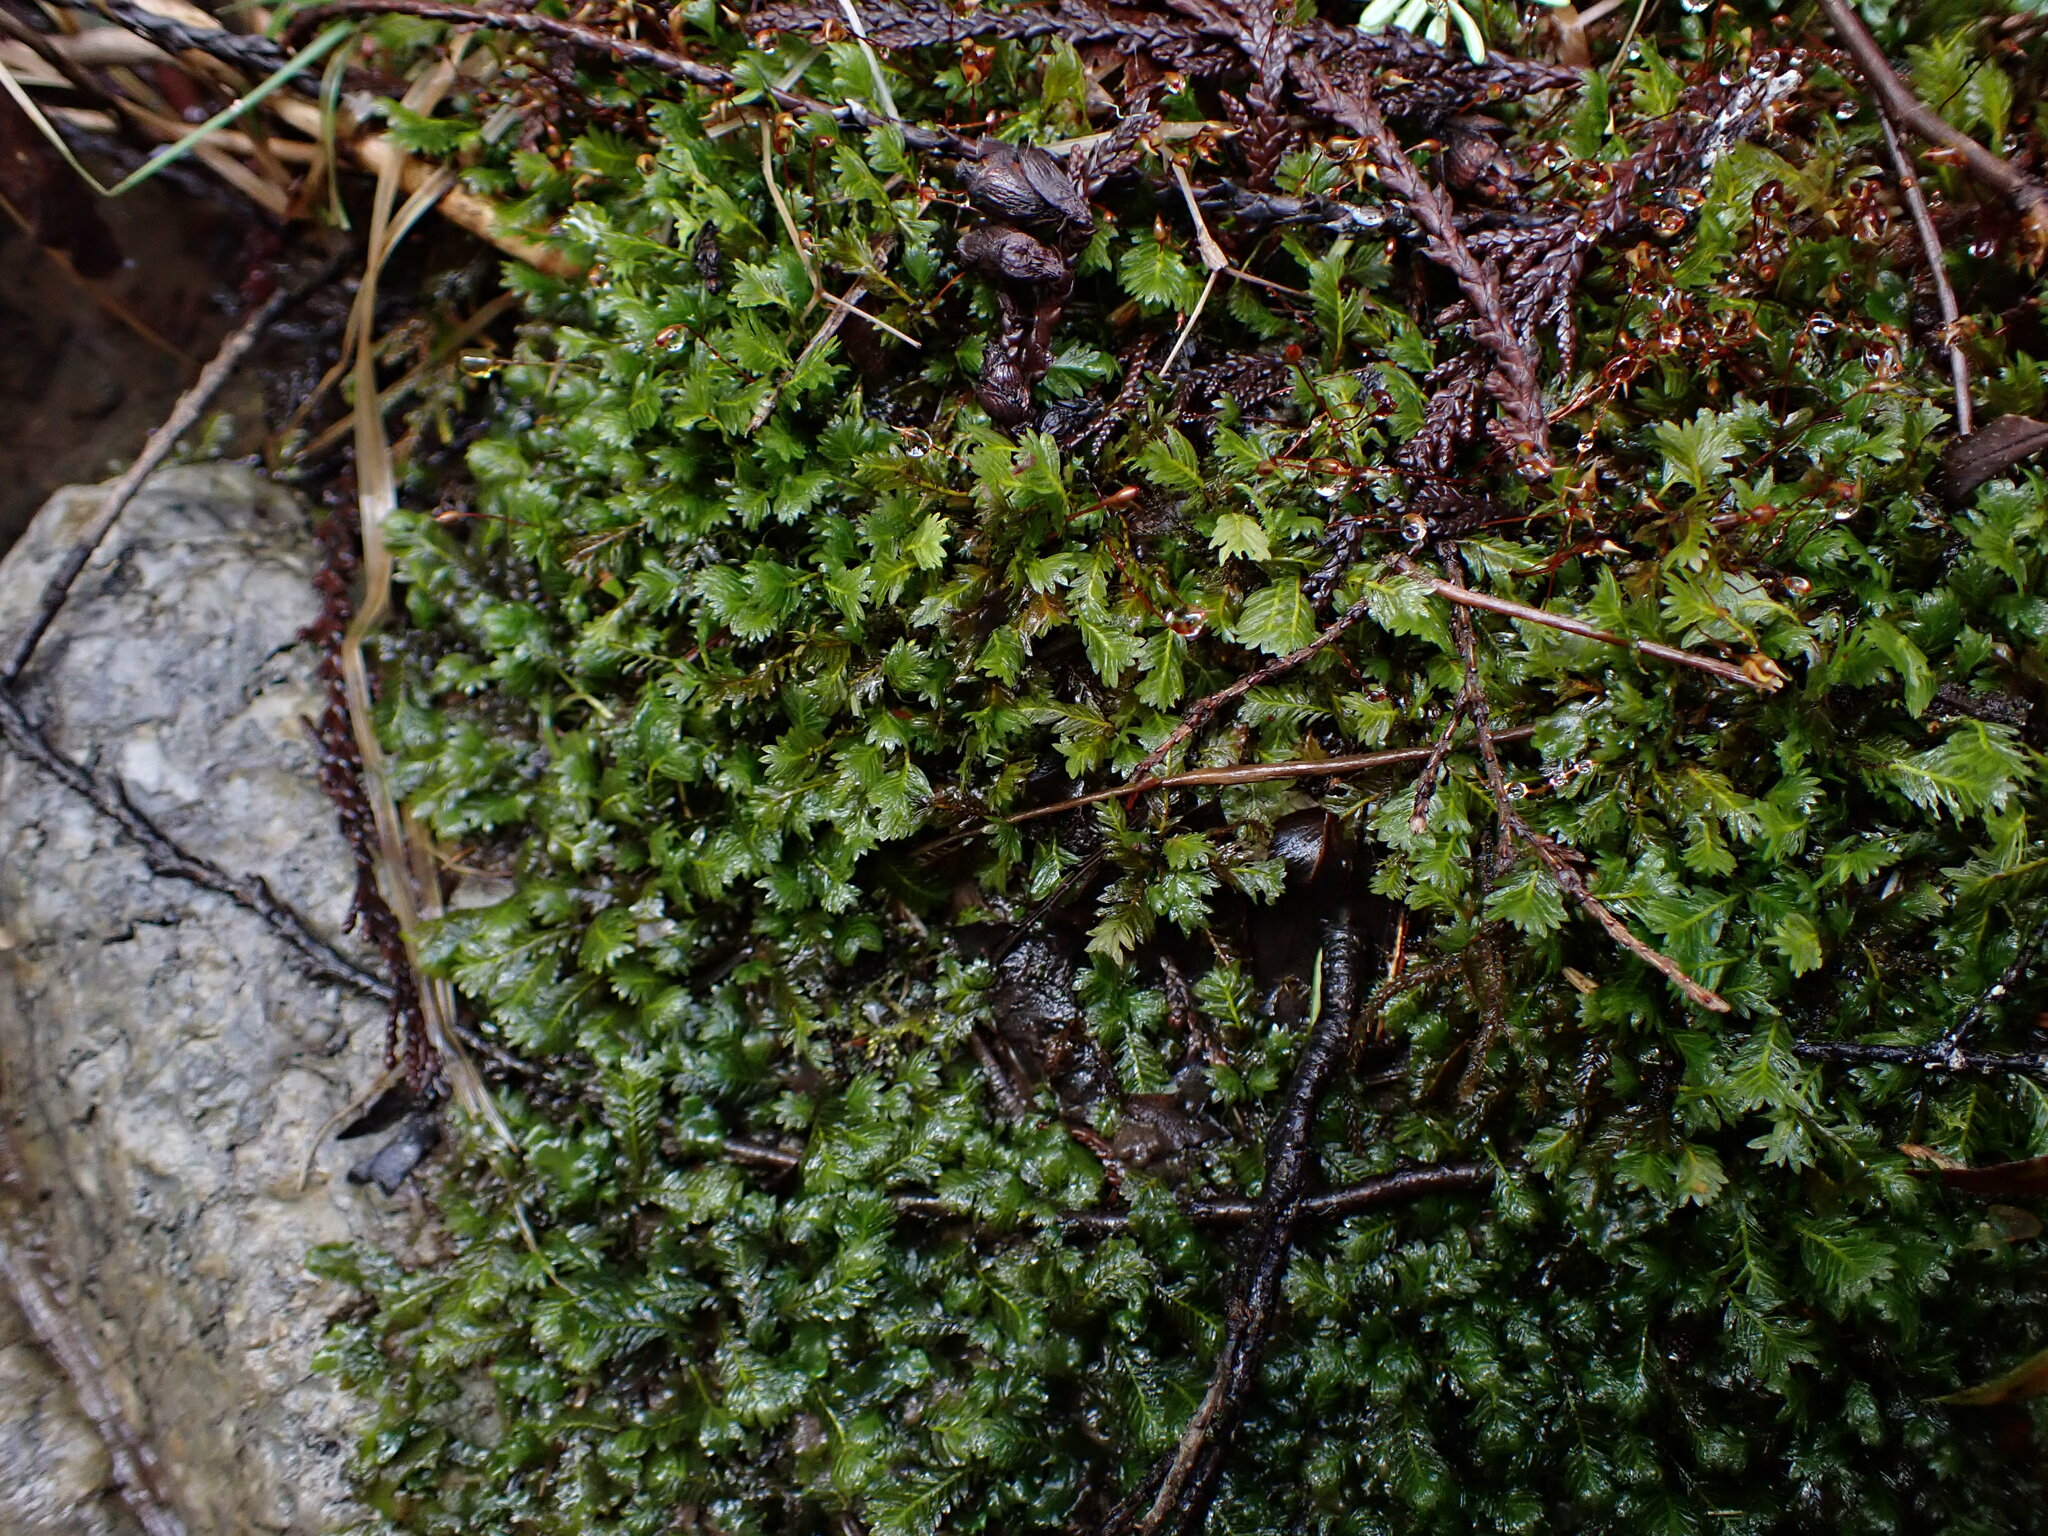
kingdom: Plantae
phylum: Bryophyta
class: Bryopsida
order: Dicranales
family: Fissidentaceae
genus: Fissidens
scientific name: Fissidens adianthoides
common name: Maidenhair pocket moss
